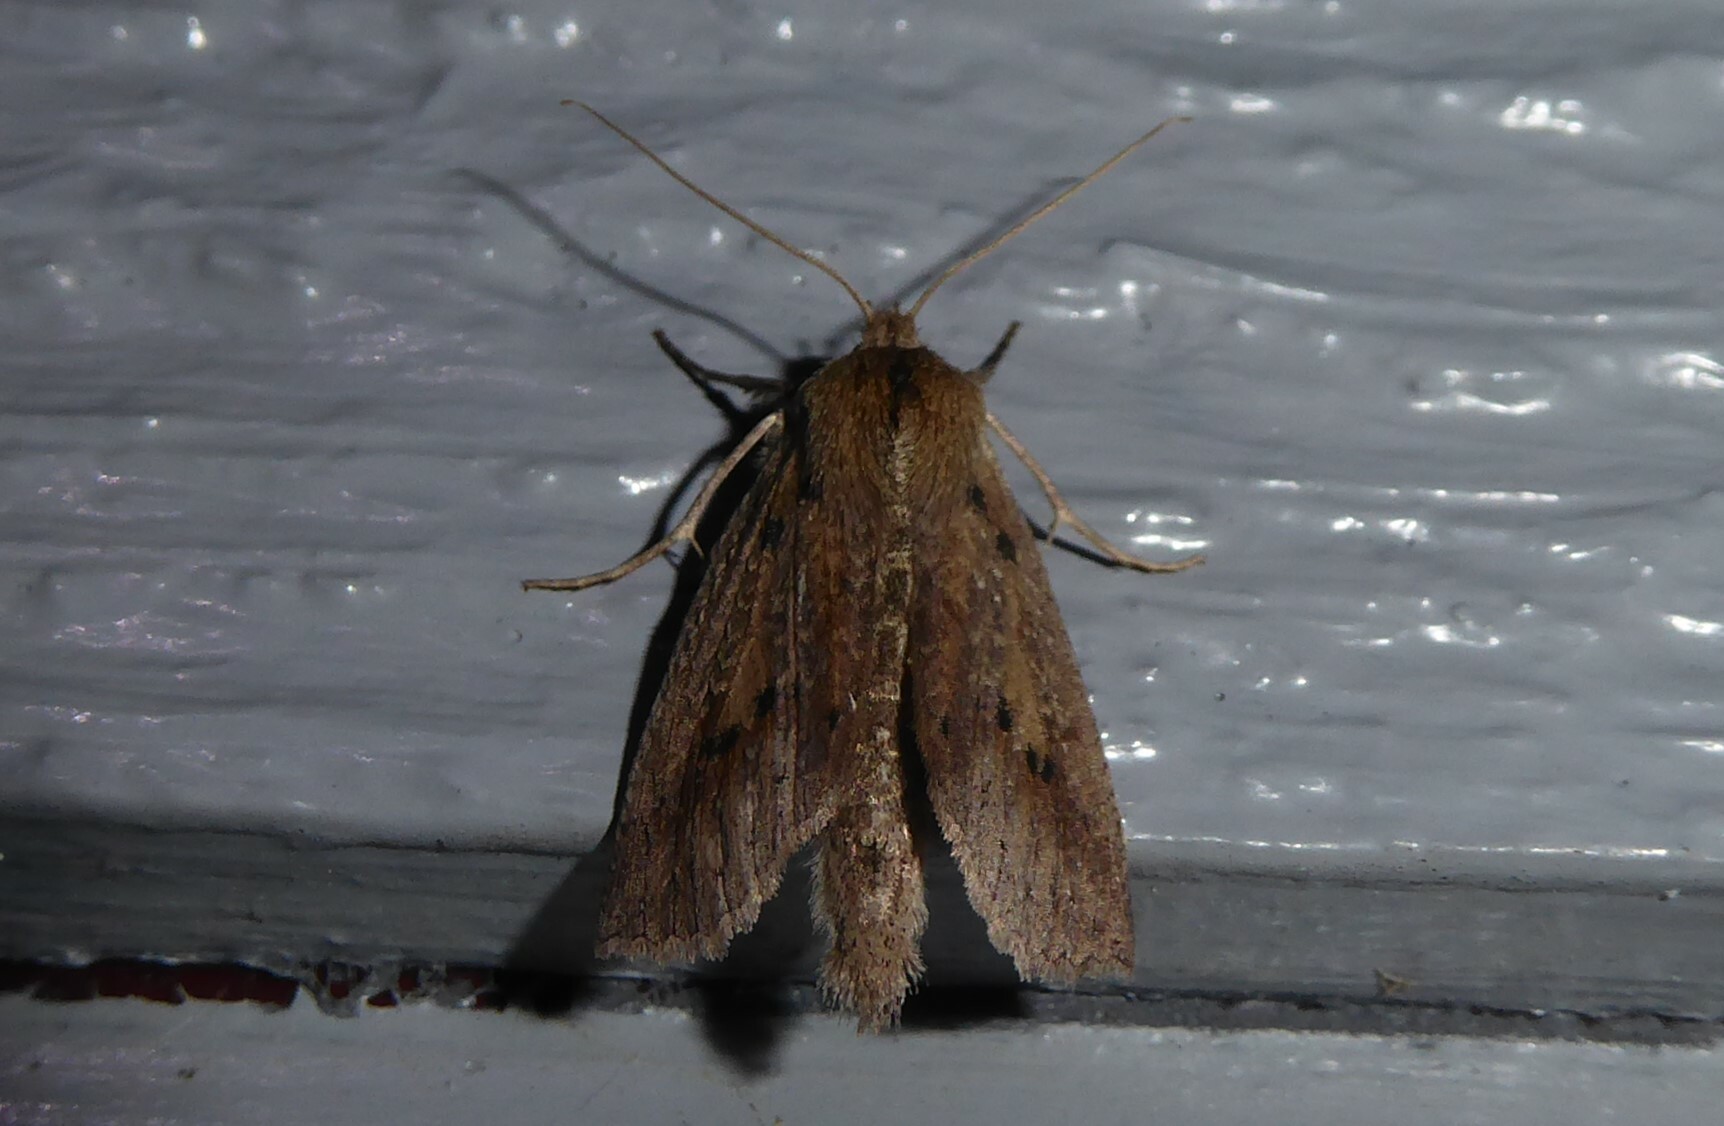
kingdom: Animalia
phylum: Arthropoda
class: Insecta
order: Lepidoptera
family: Geometridae
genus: Declana
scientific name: Declana leptomera
